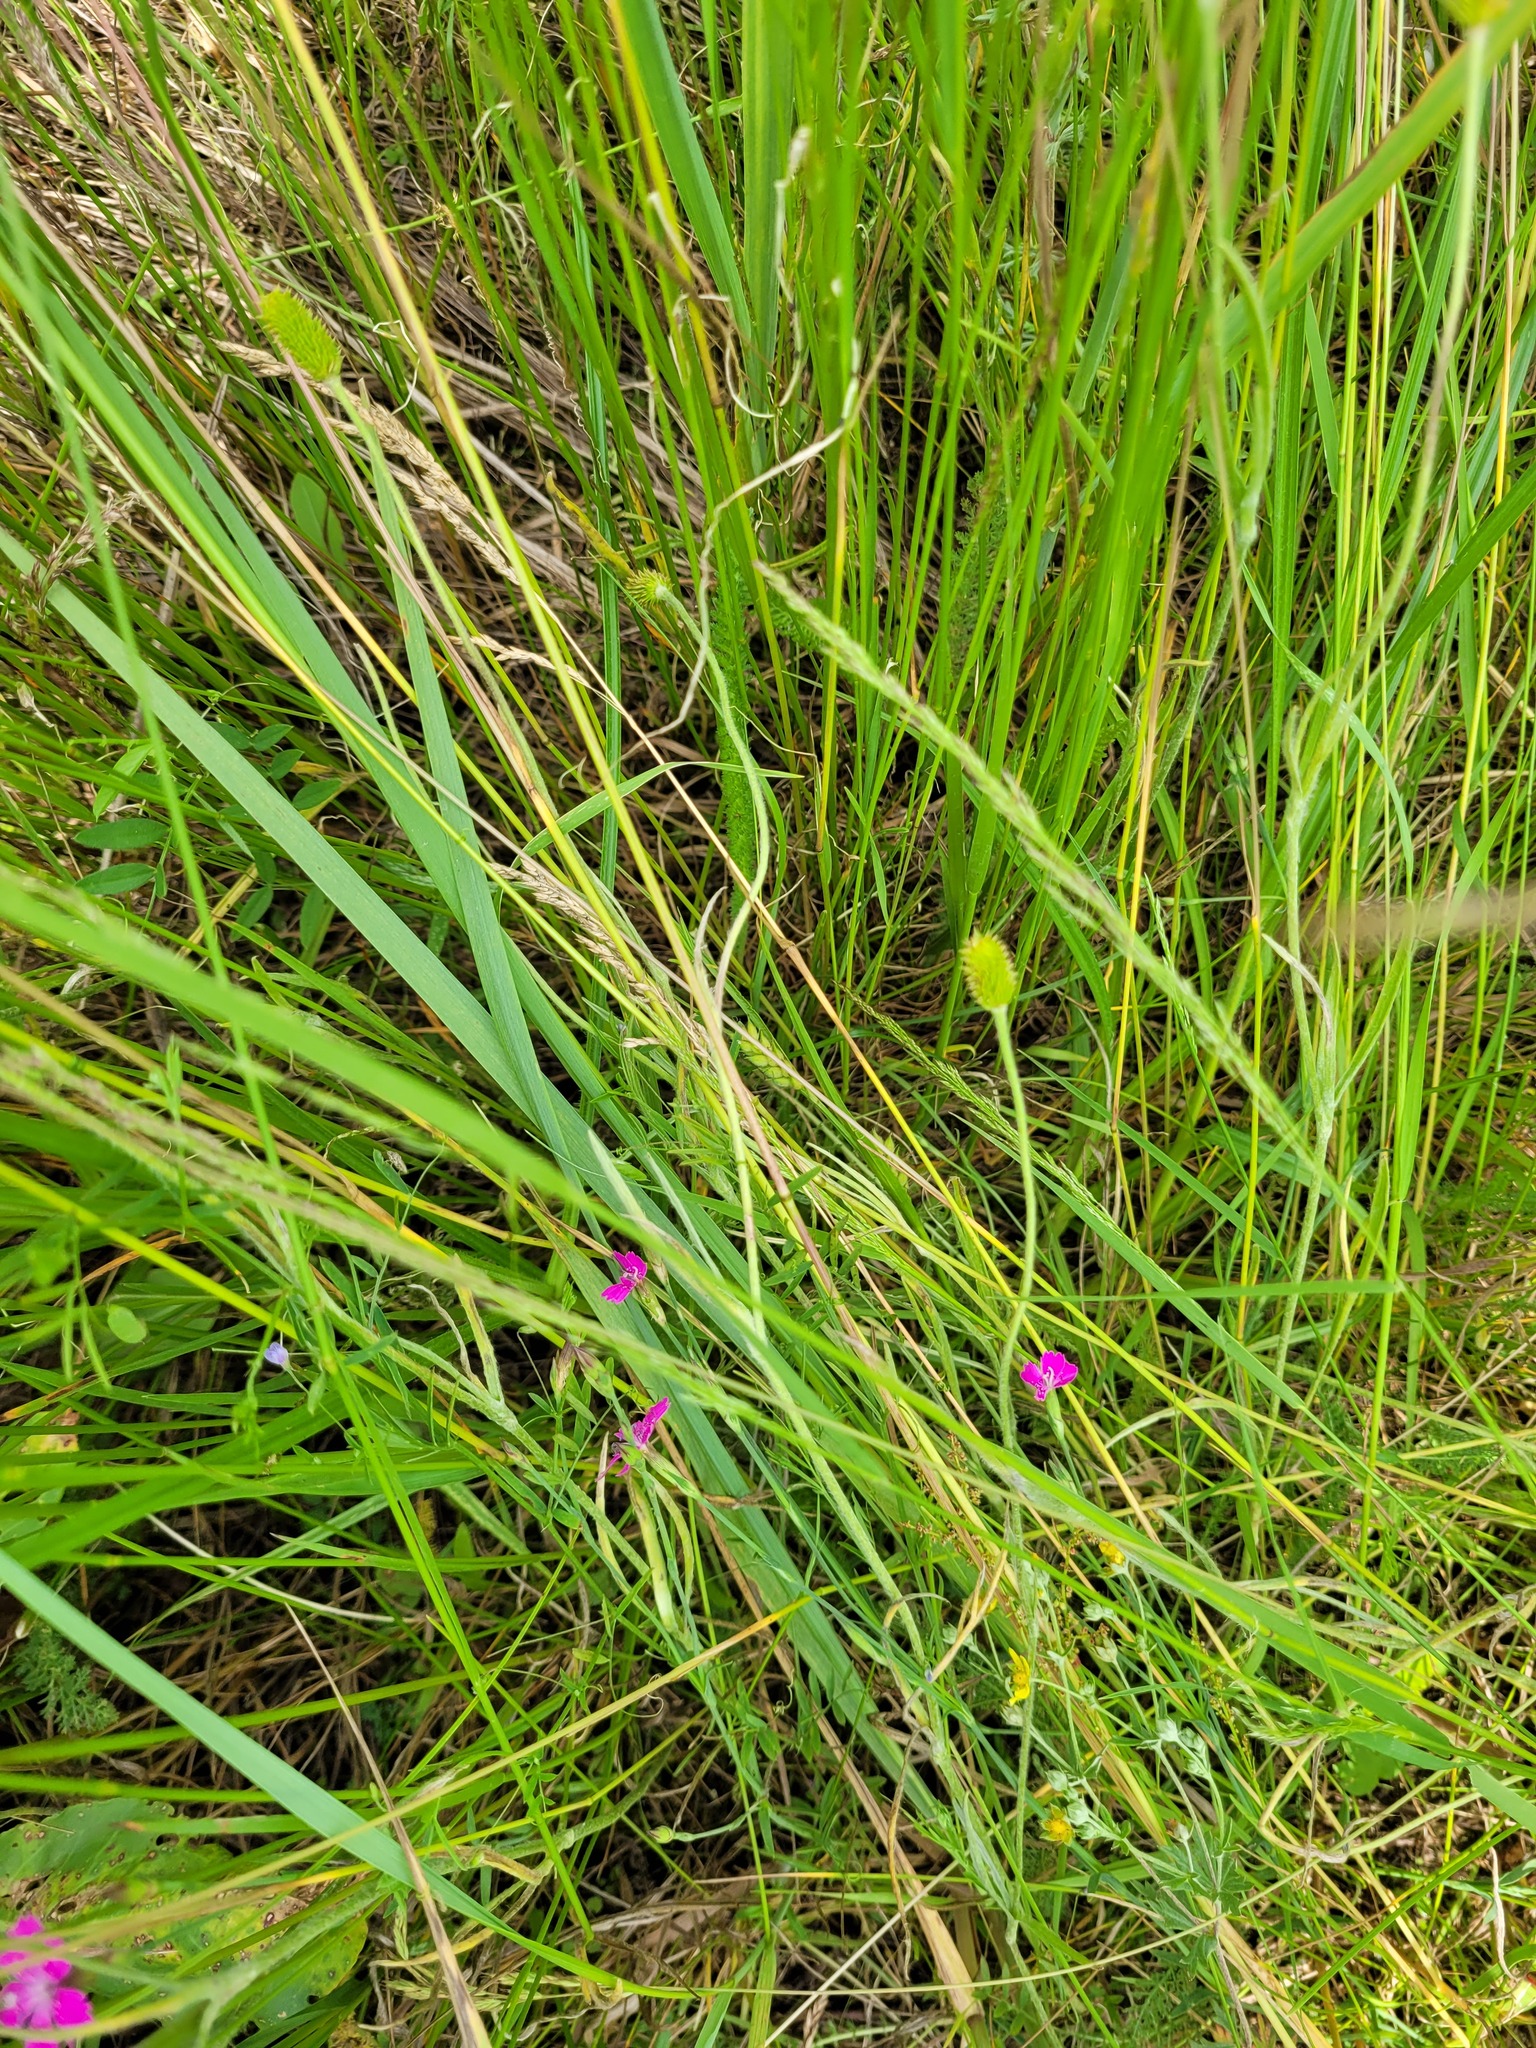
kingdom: Plantae
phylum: Tracheophyta
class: Magnoliopsida
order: Ranunculales
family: Ranunculaceae
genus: Ranunculus
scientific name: Ranunculus illyricus
